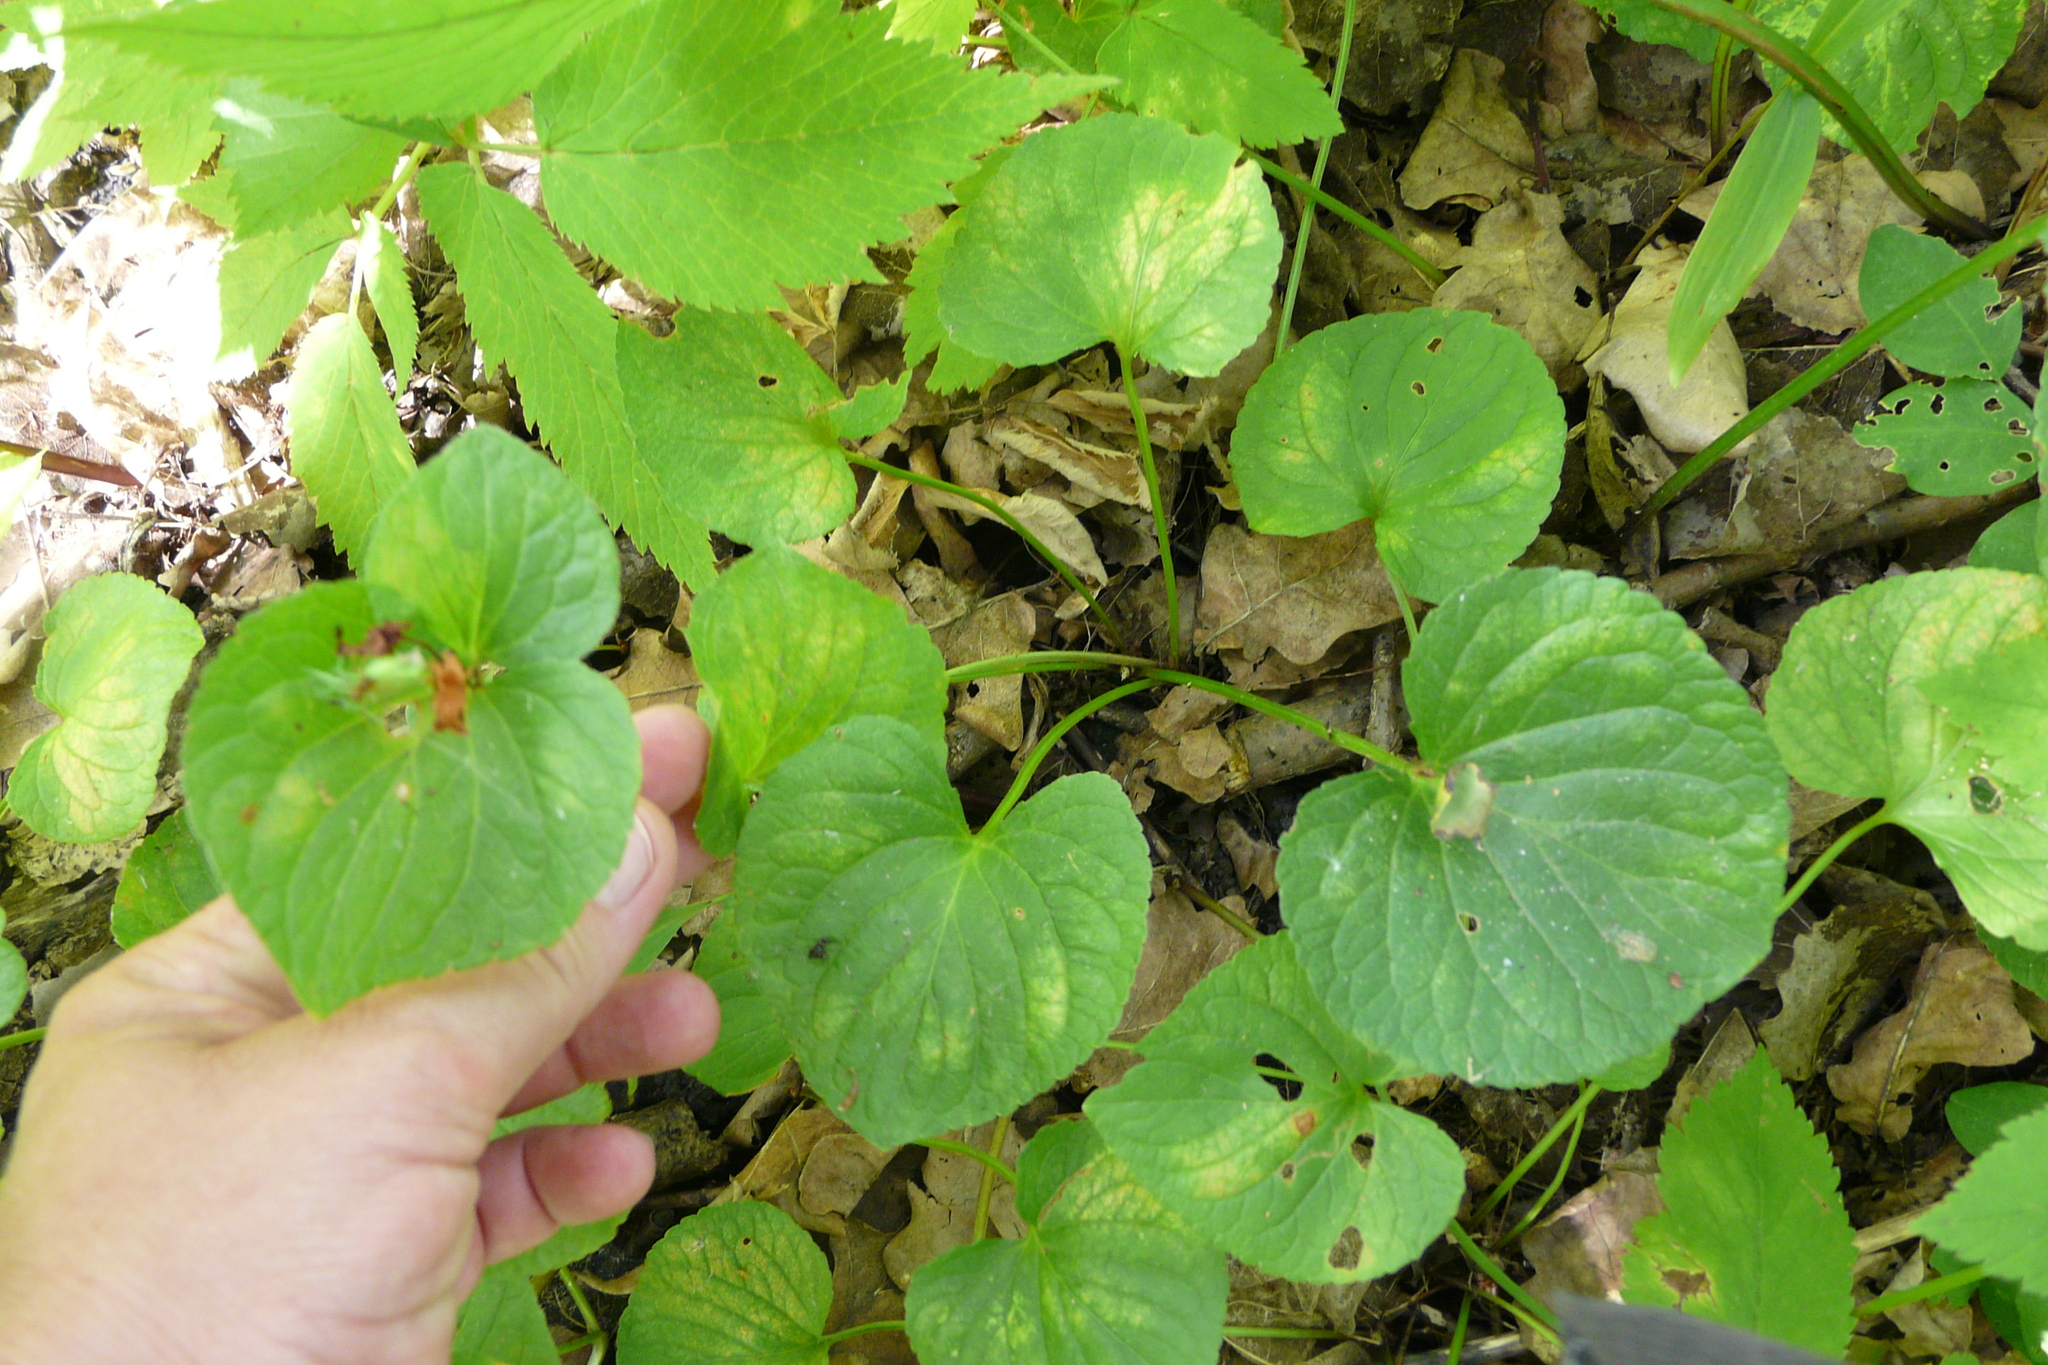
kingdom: Plantae
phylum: Tracheophyta
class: Magnoliopsida
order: Malpighiales
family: Violaceae
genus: Viola
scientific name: Viola mirabilis
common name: Wonder violet
